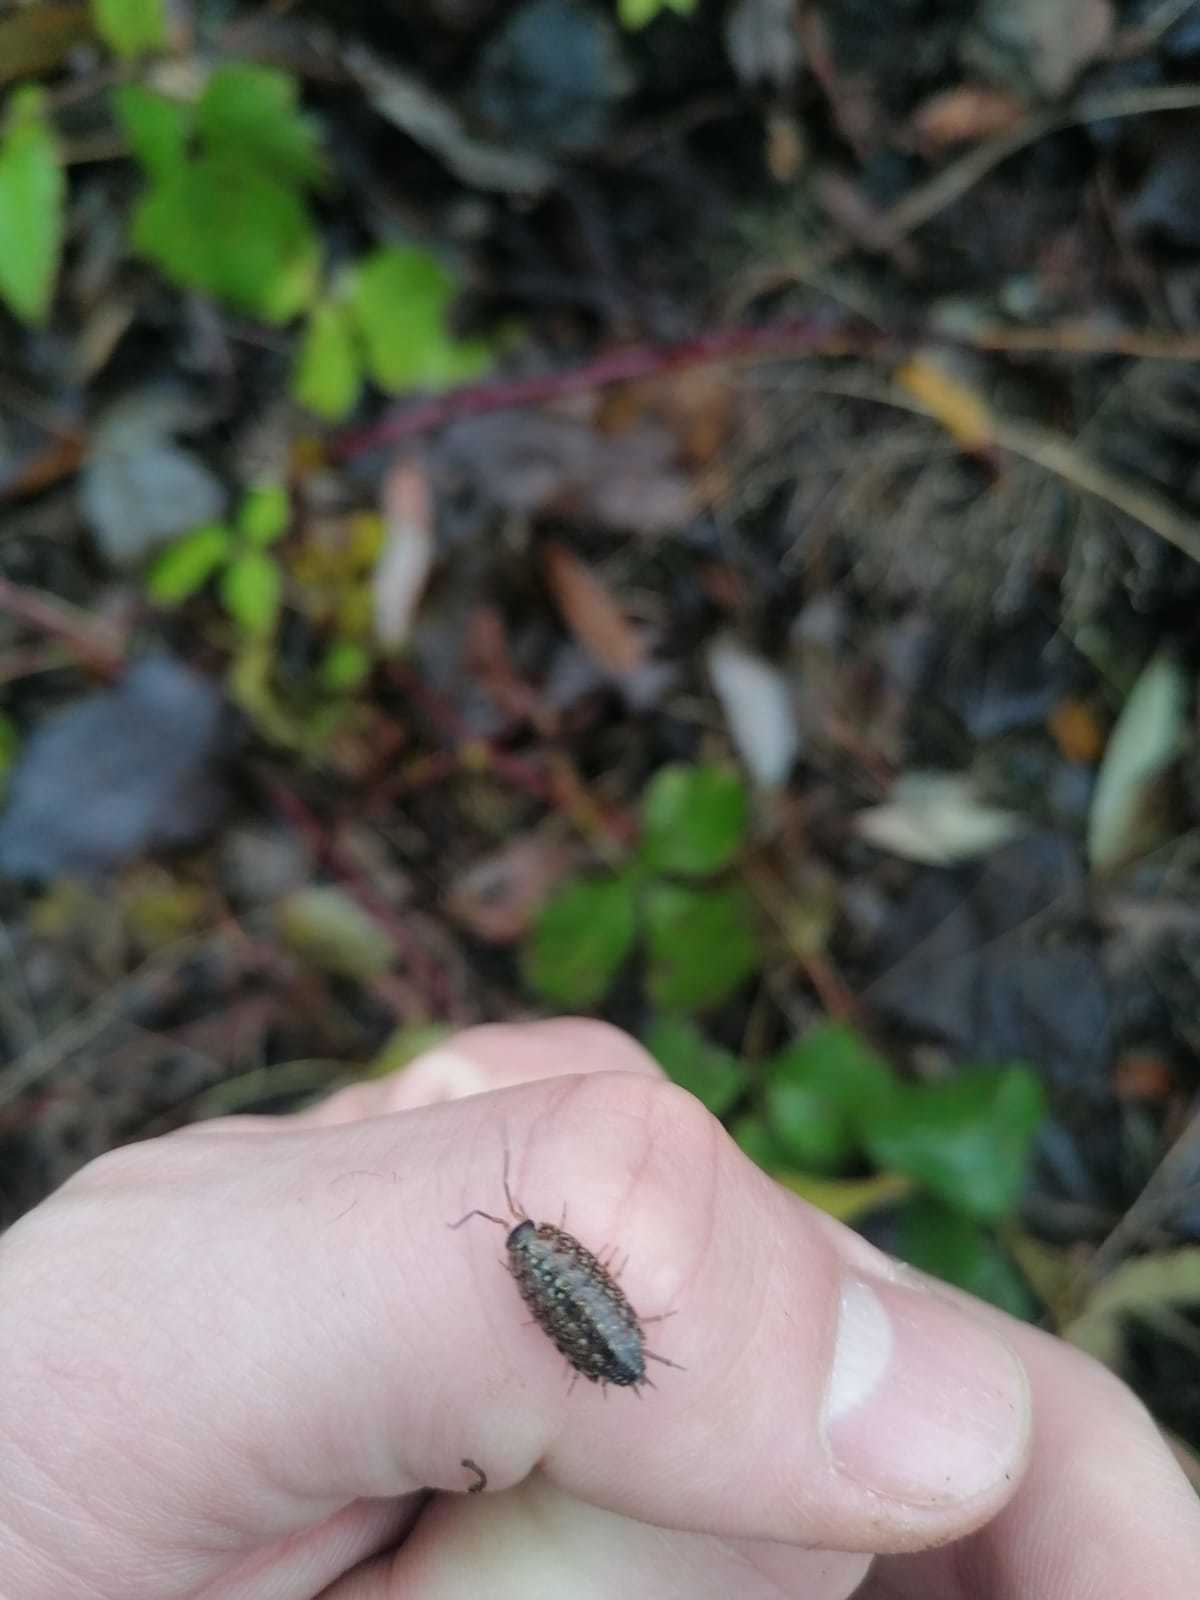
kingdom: Animalia
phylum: Arthropoda
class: Malacostraca
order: Isopoda
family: Philosciidae
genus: Philoscia
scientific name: Philoscia affinis
